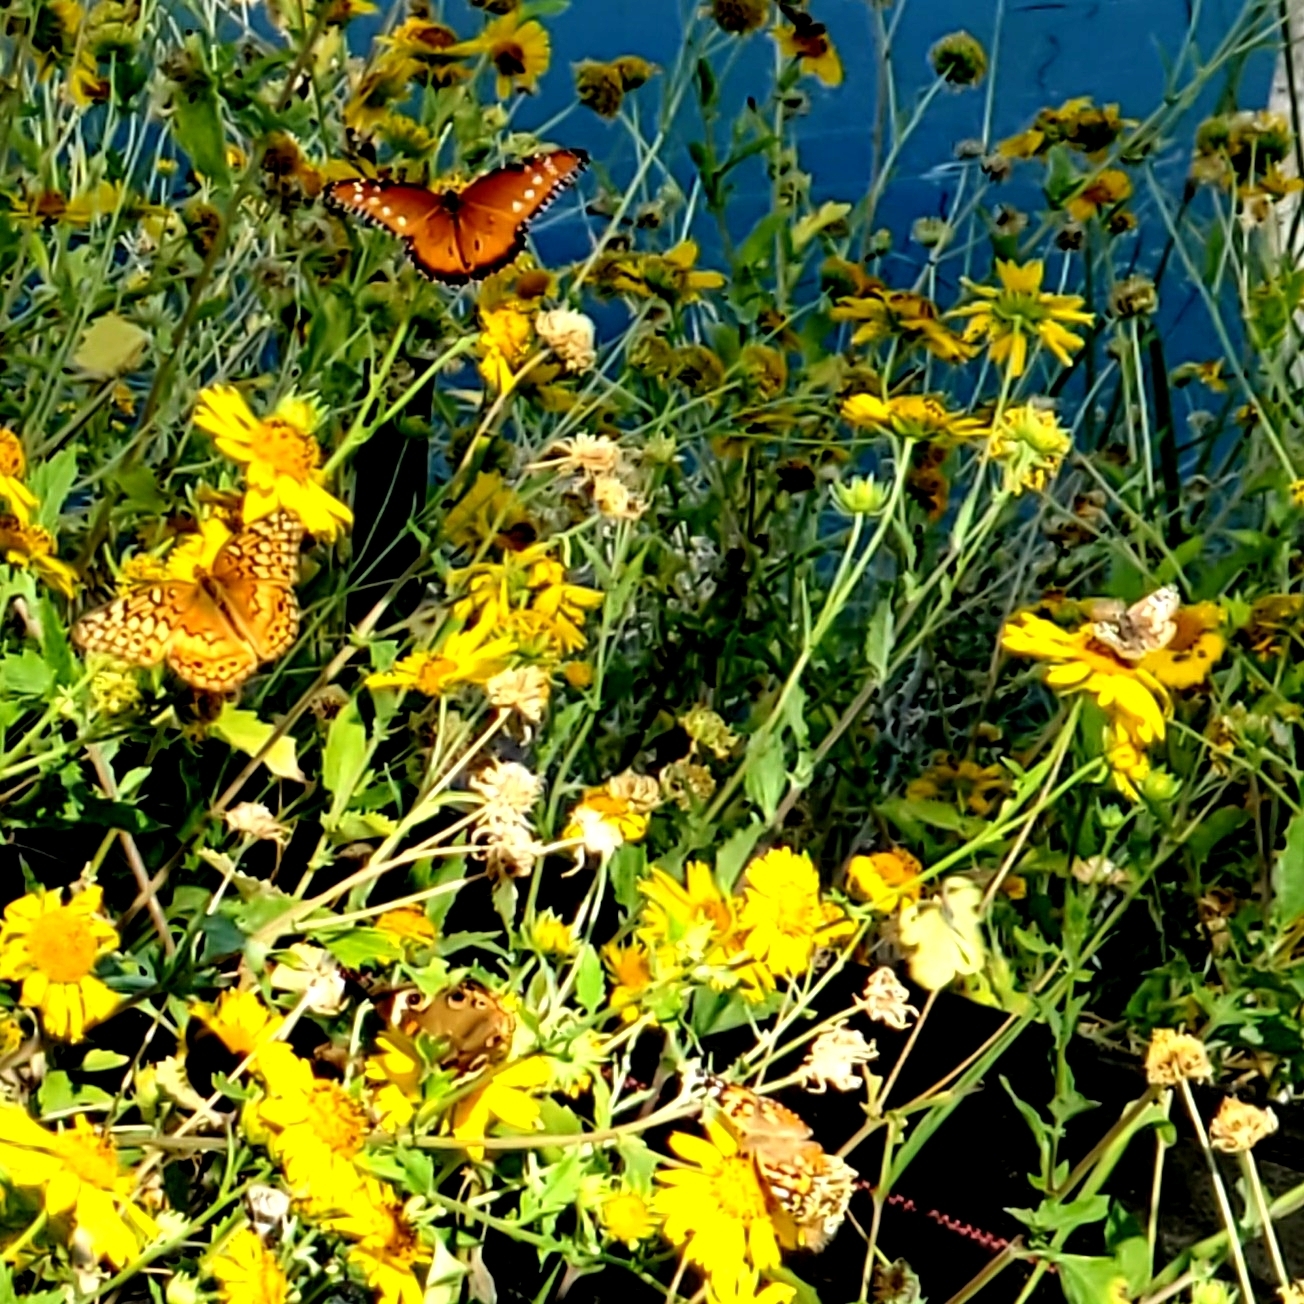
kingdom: Animalia
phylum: Arthropoda
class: Insecta
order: Lepidoptera
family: Nymphalidae
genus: Euptoieta
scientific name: Euptoieta claudia
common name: Variegated fritillary
